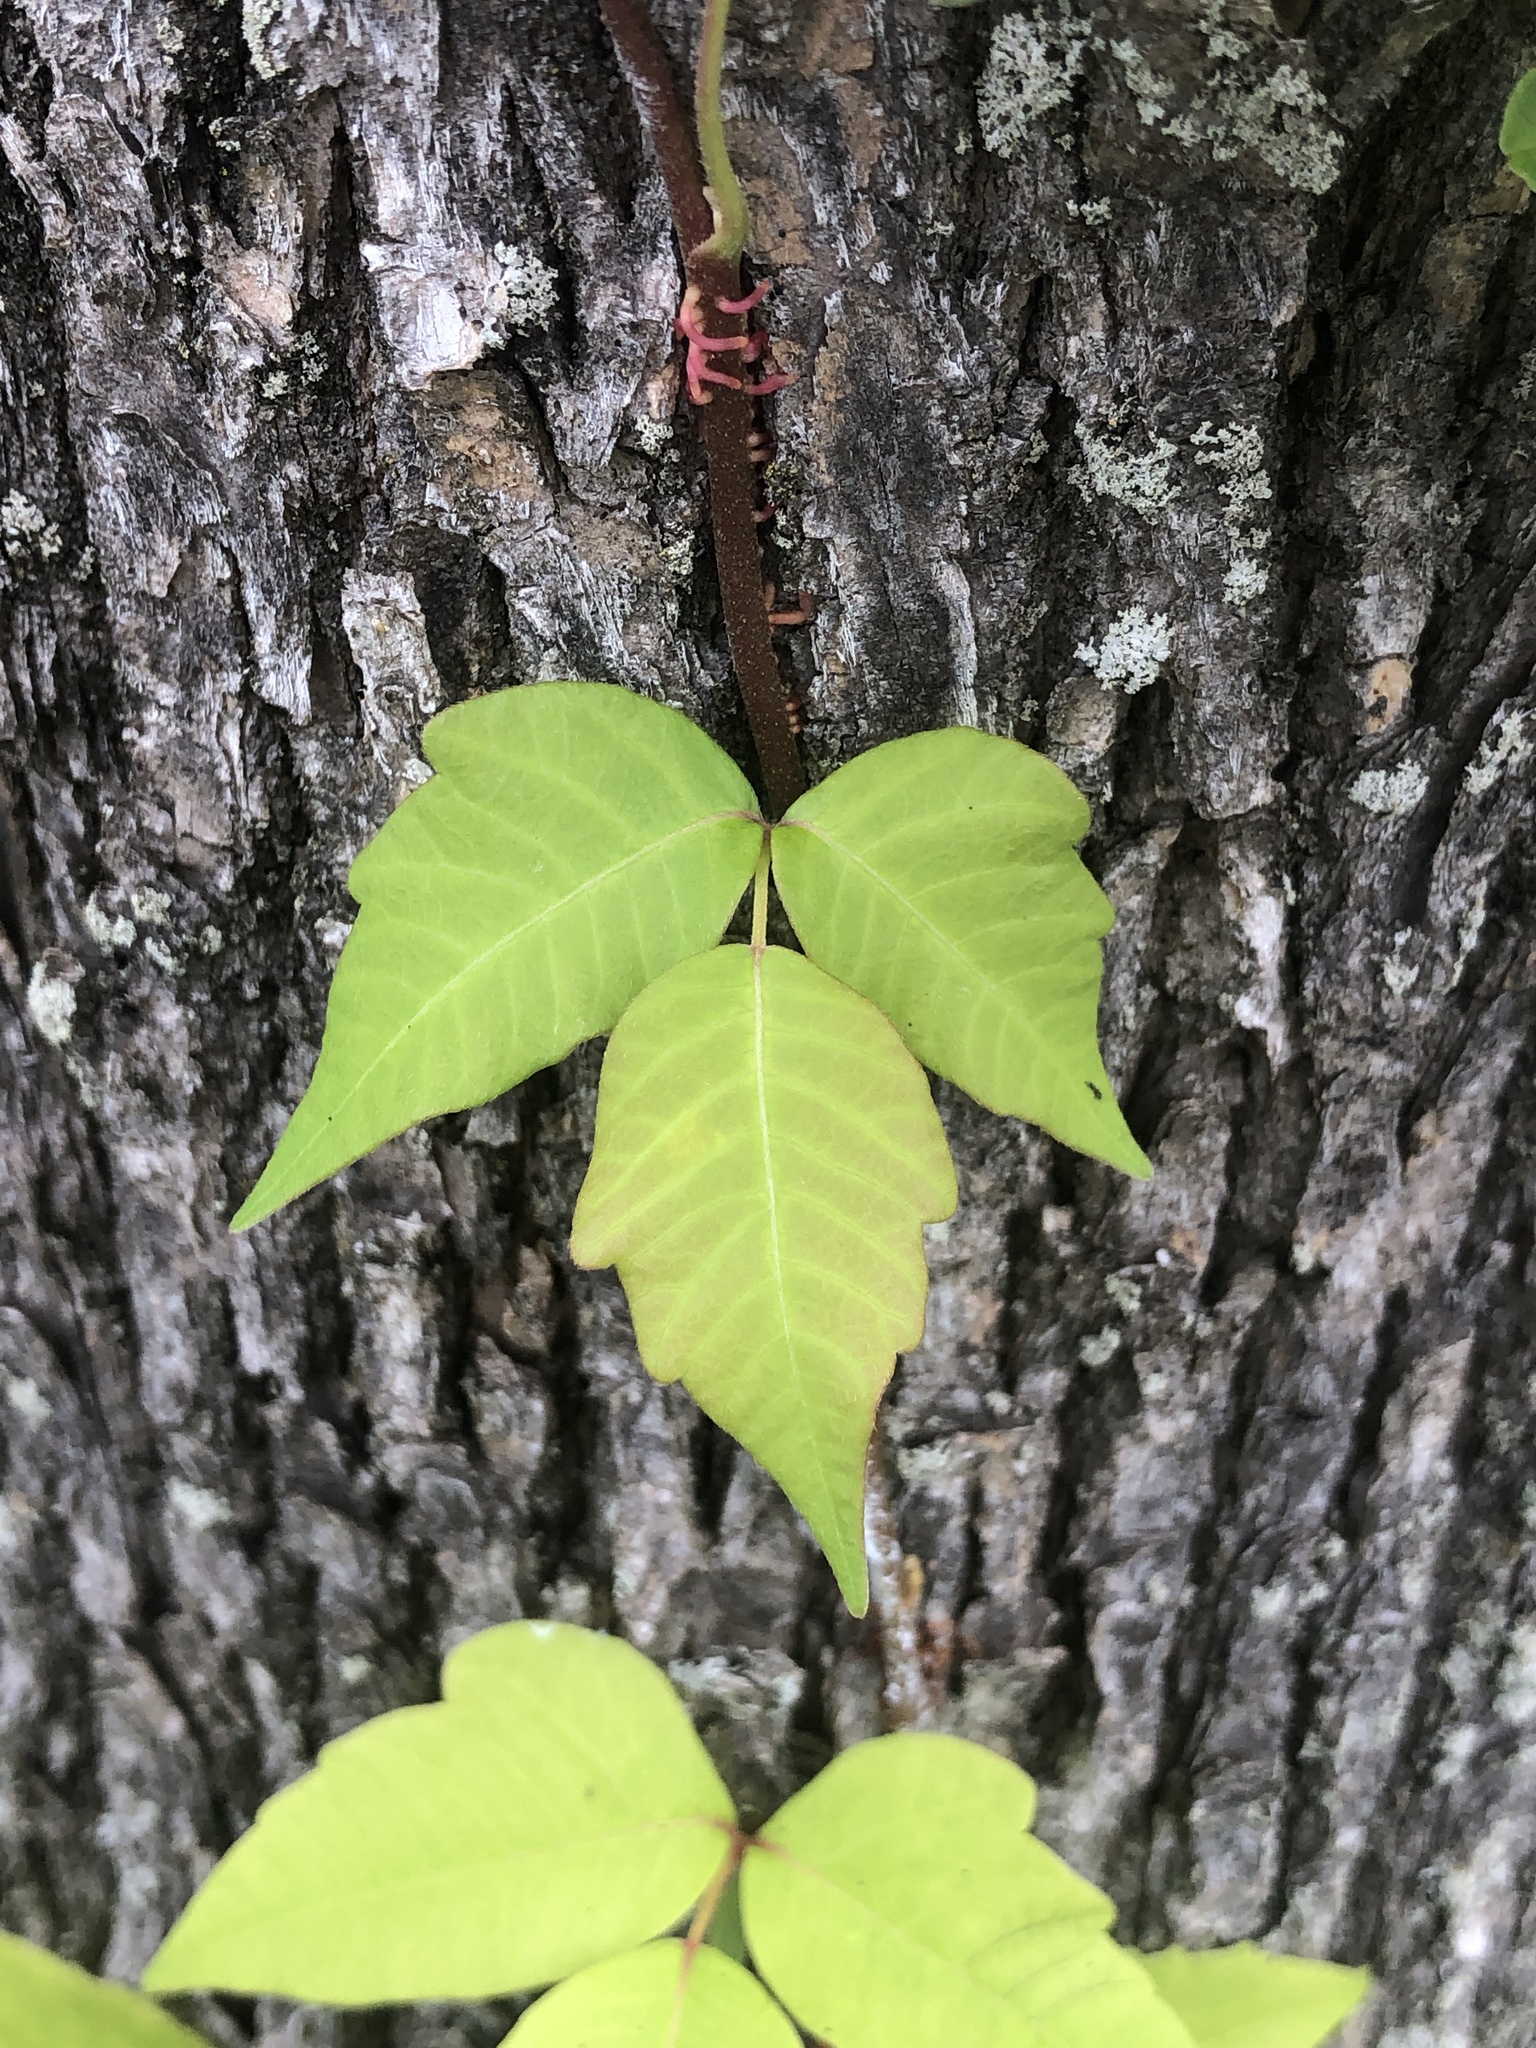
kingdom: Plantae
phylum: Tracheophyta
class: Magnoliopsida
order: Sapindales
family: Anacardiaceae
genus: Toxicodendron
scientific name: Toxicodendron radicans
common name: Poison ivy
